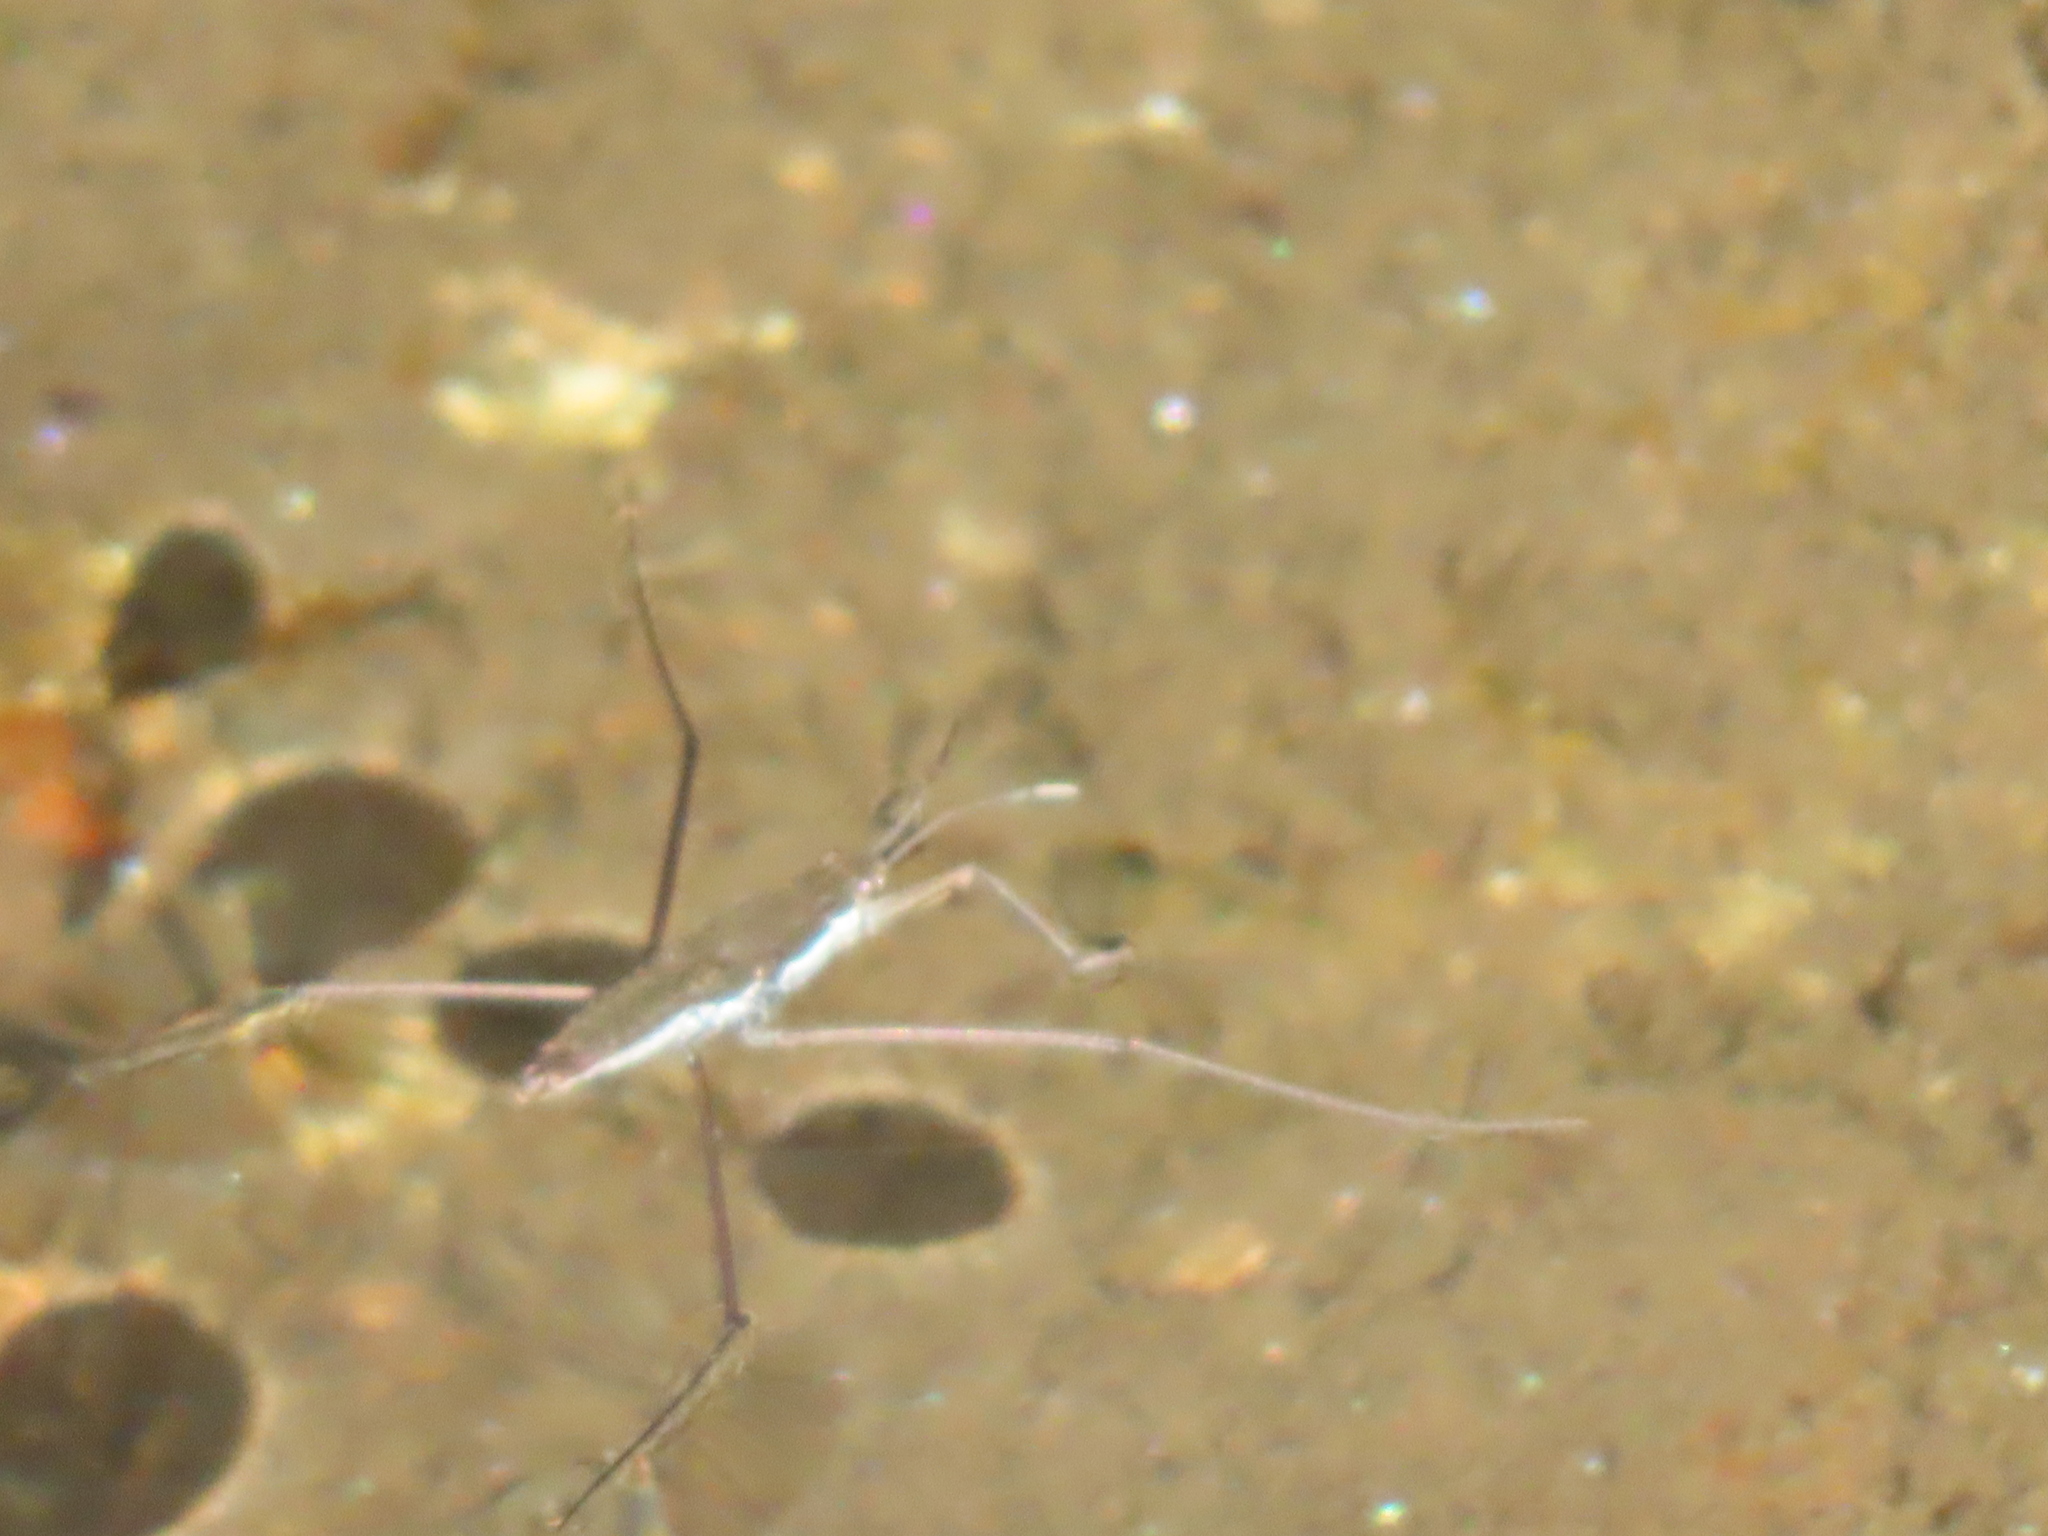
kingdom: Animalia
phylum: Arthropoda
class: Insecta
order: Hemiptera
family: Gerridae
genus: Aquarius
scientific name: Aquarius
